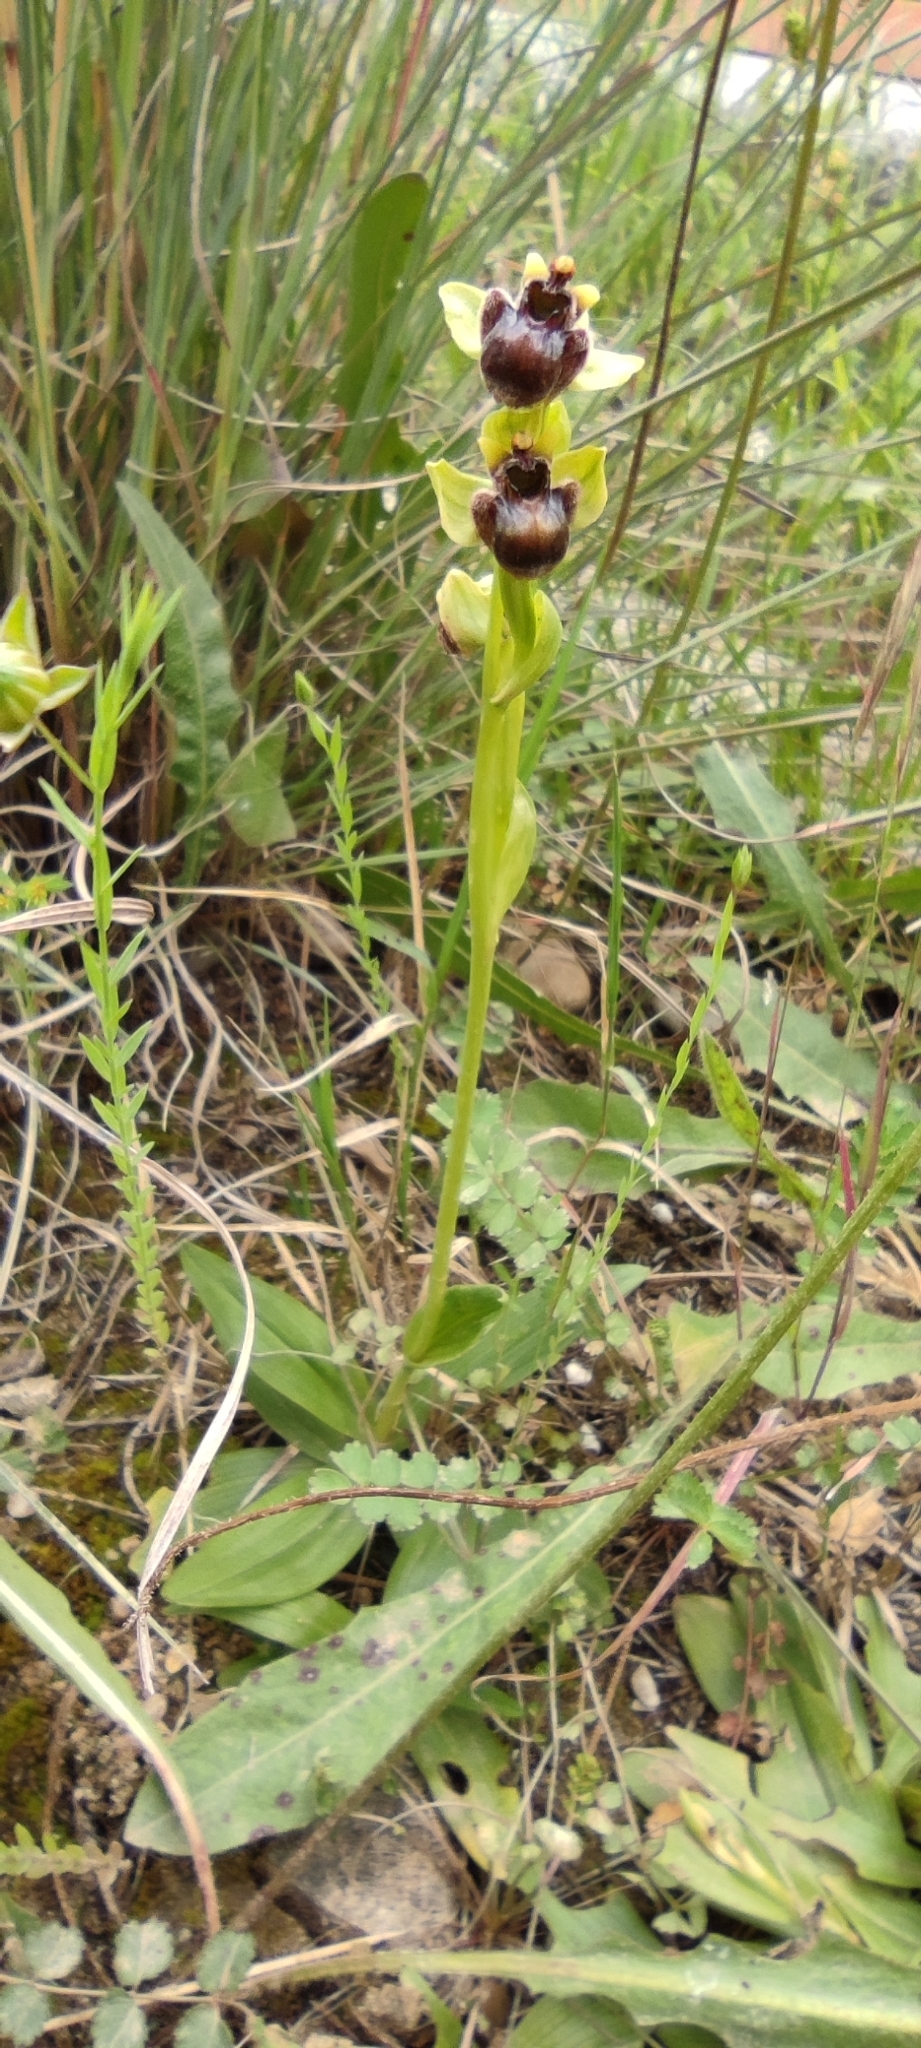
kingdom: Plantae
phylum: Tracheophyta
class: Liliopsida
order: Asparagales
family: Orchidaceae
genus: Ophrys
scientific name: Ophrys bombyliflora
